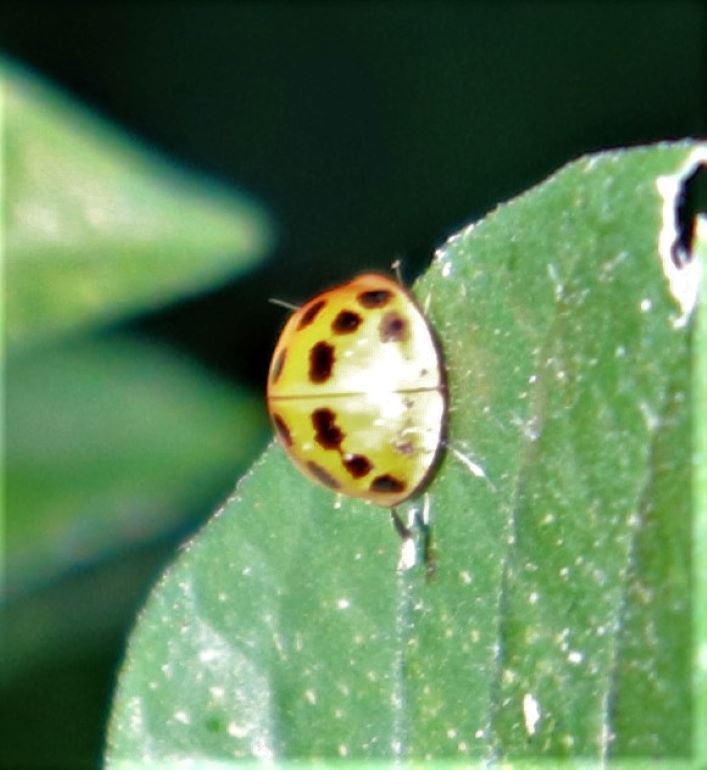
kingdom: Animalia
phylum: Arthropoda
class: Insecta
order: Coleoptera
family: Coccinellidae
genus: Harmonia
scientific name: Harmonia axyridis
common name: Harlequin ladybird
